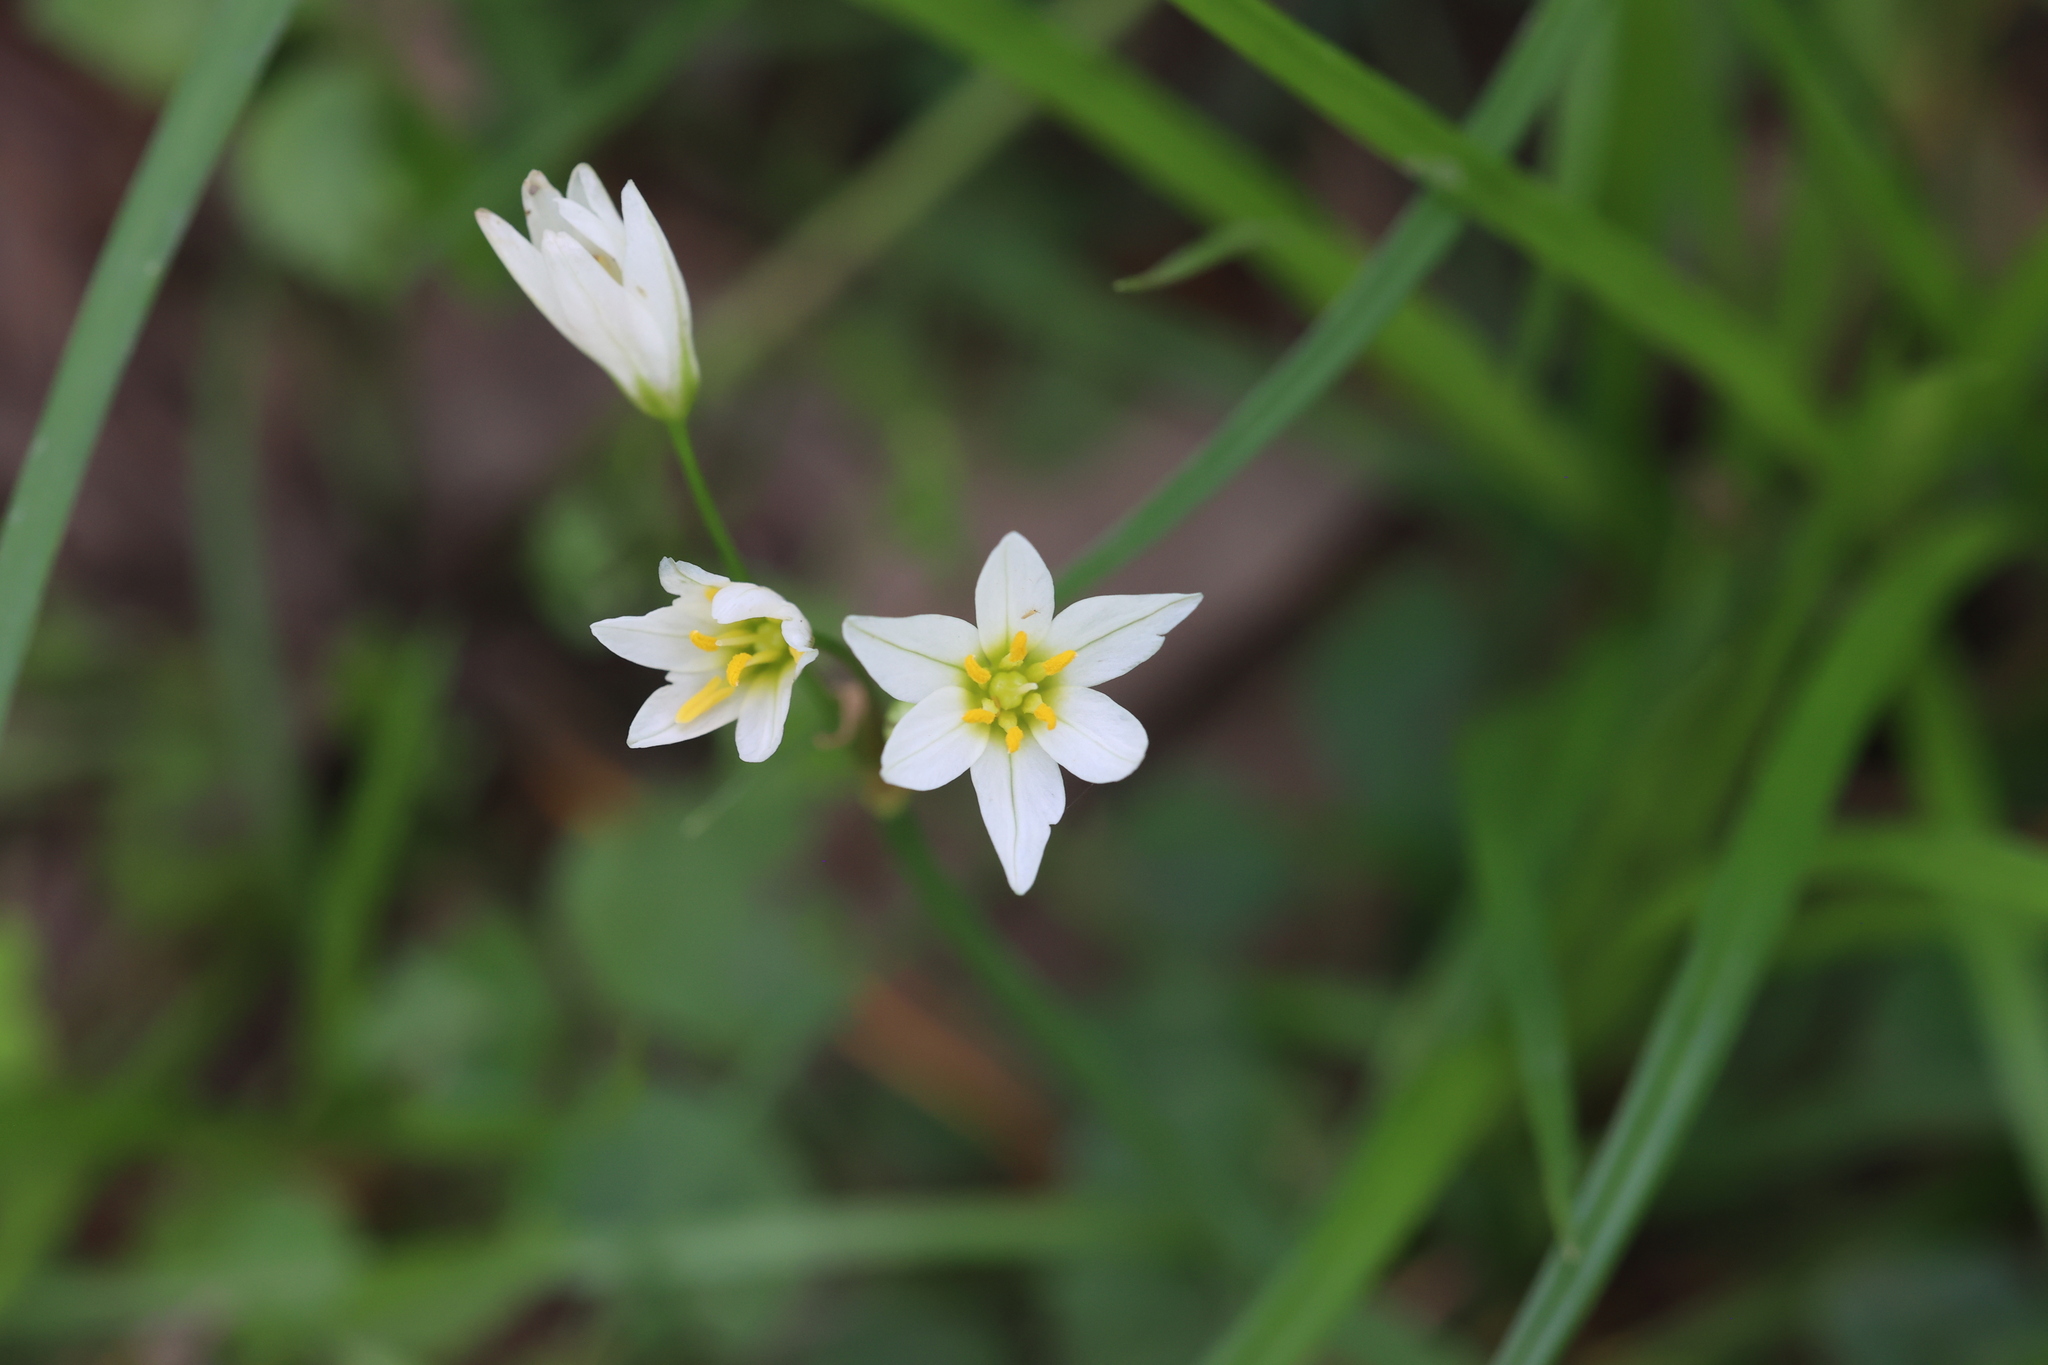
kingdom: Plantae
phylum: Tracheophyta
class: Liliopsida
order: Asparagales
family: Amaryllidaceae
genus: Nothoscordum
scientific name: Nothoscordum bivalve
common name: Crow-poison
